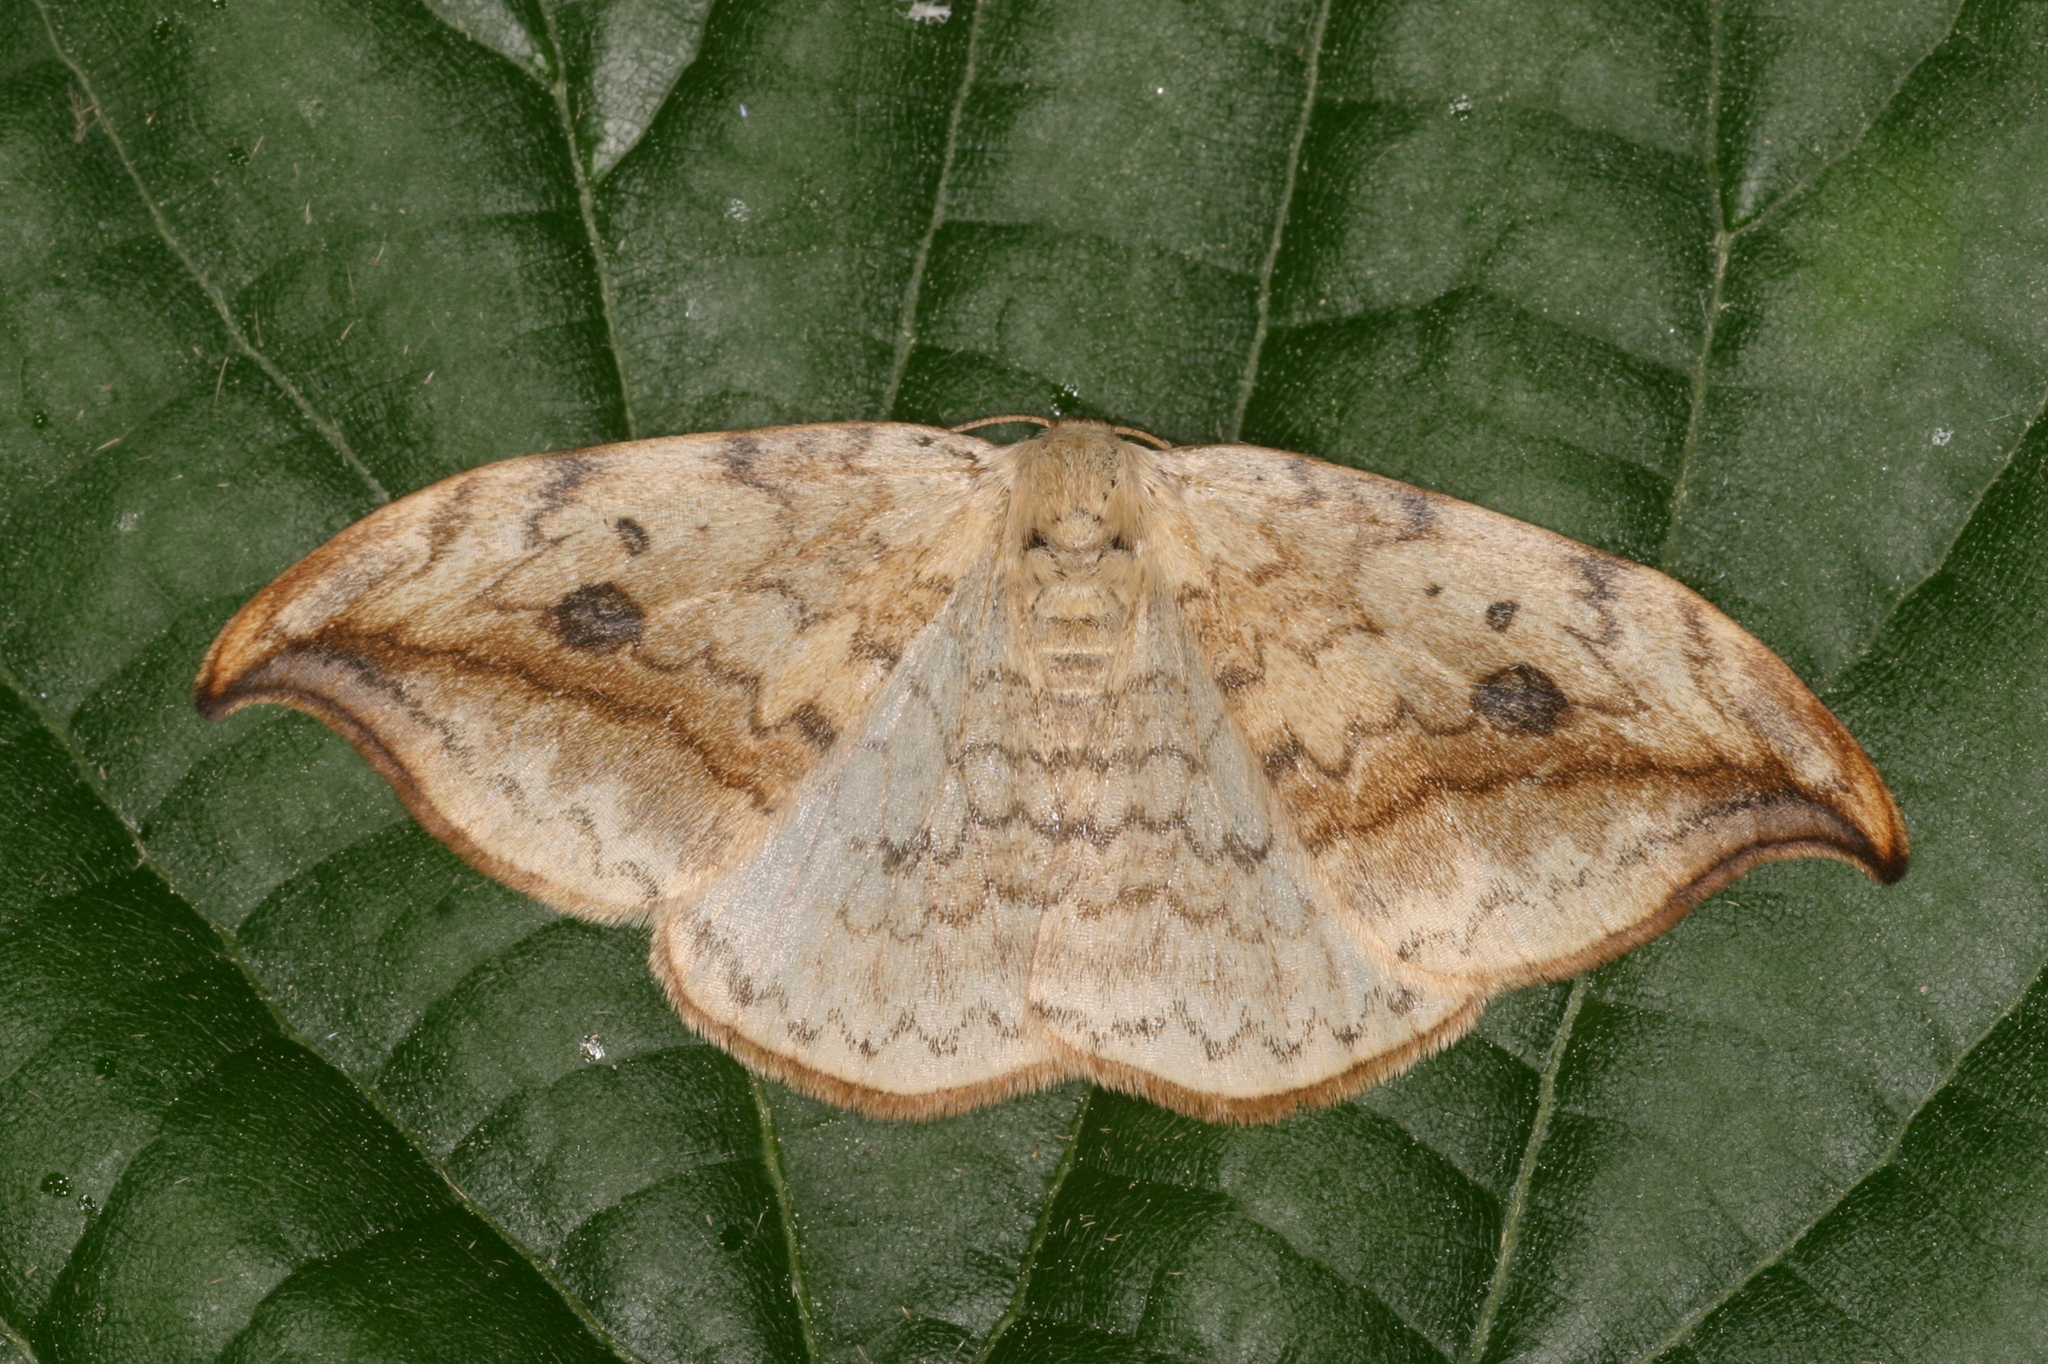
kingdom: Animalia
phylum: Arthropoda
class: Insecta
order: Lepidoptera
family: Drepanidae
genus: Drepana
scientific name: Drepana falcataria
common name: Pebble hook-tip
